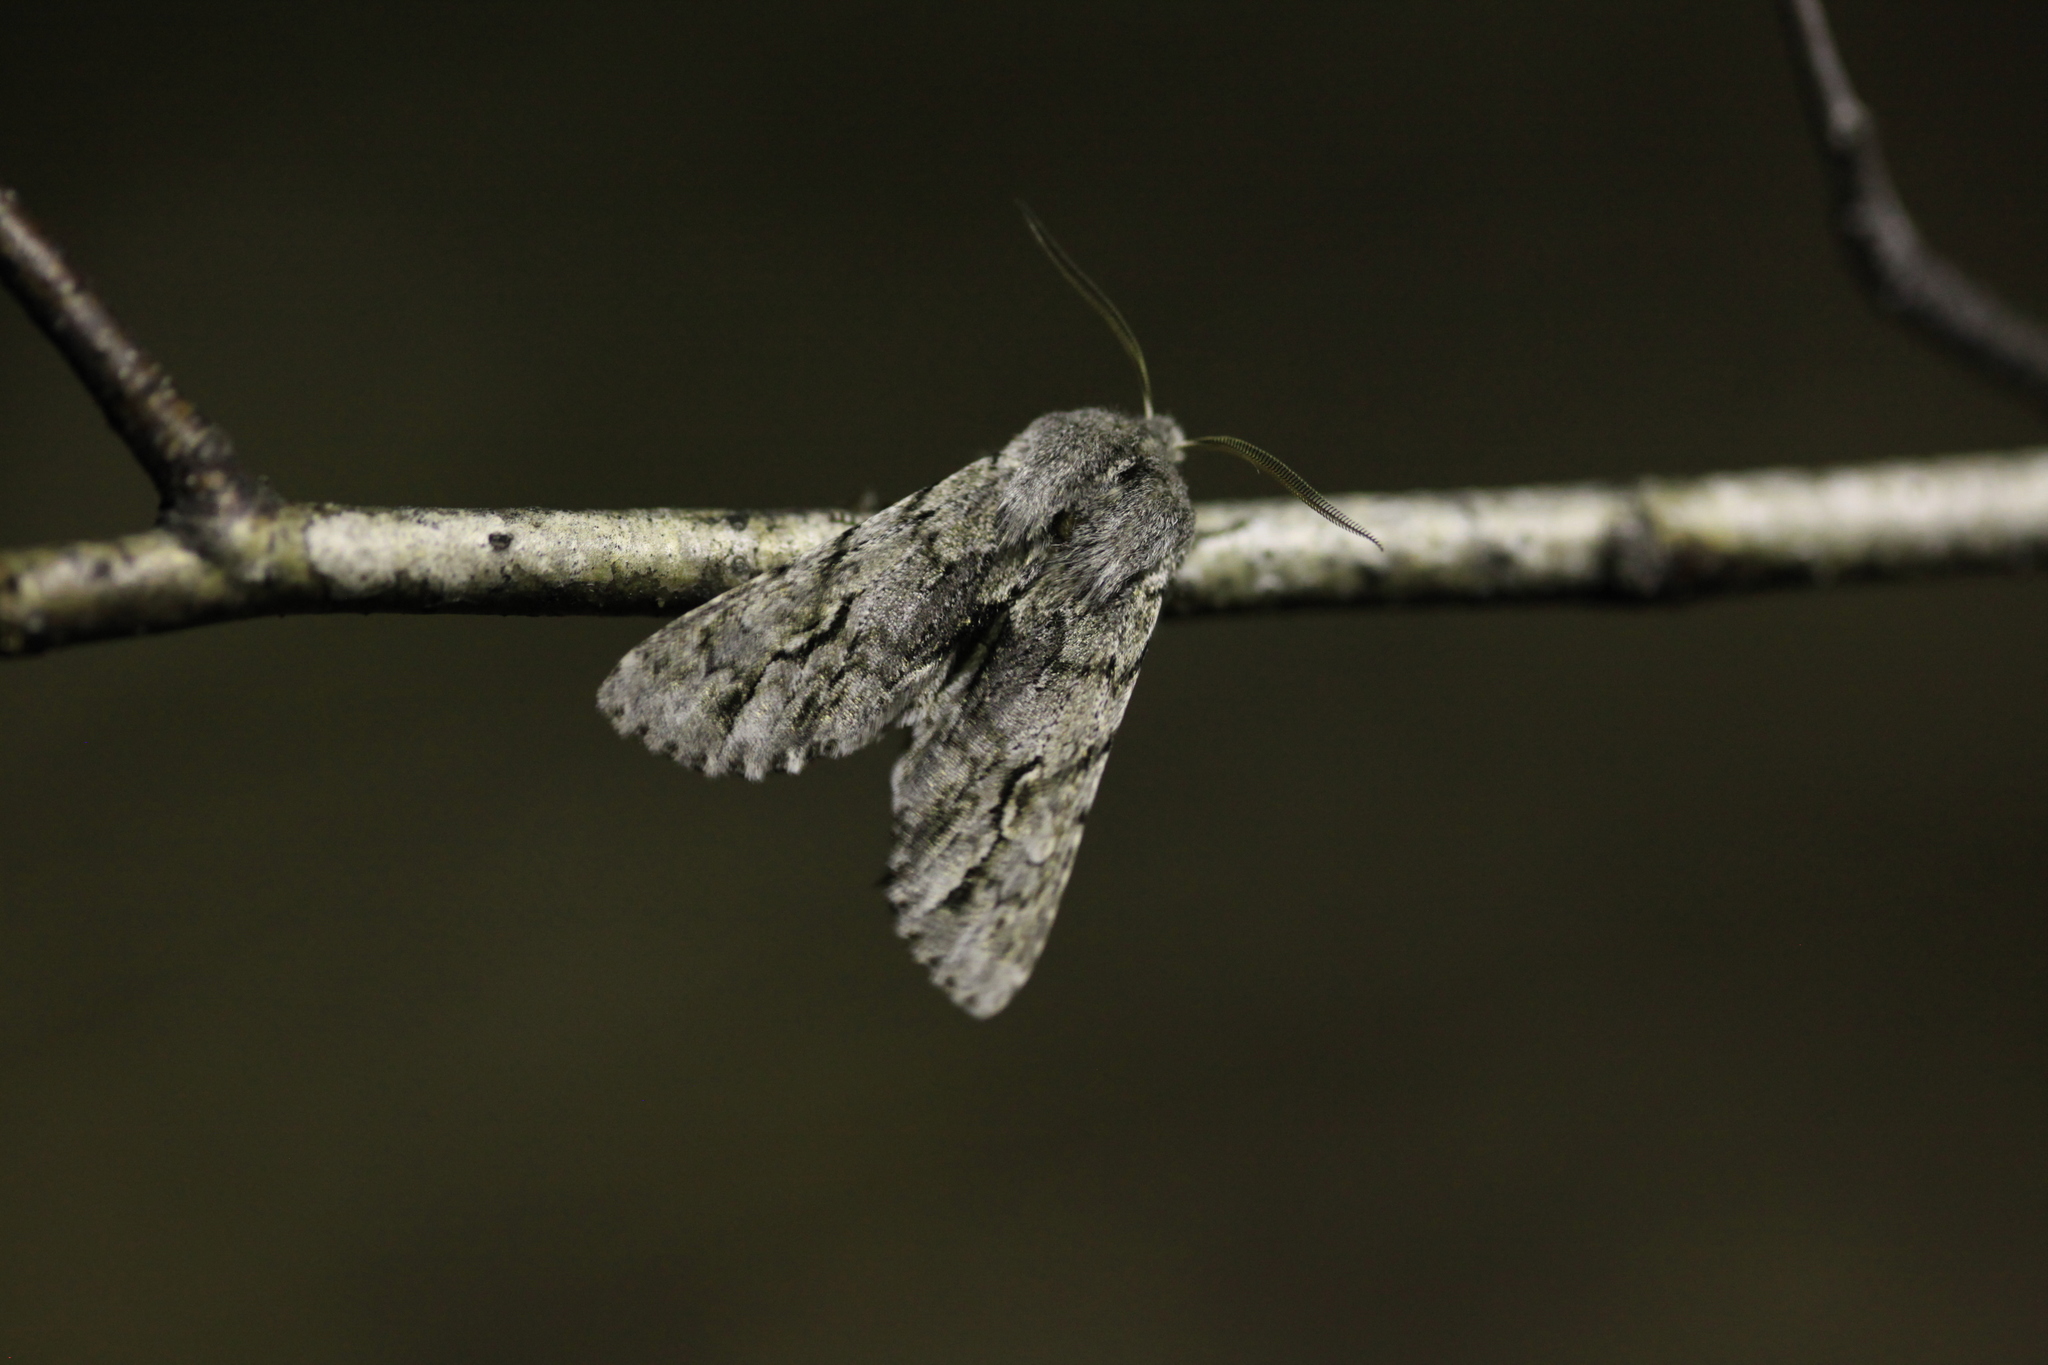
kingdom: Animalia
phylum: Arthropoda
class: Insecta
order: Lepidoptera
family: Noctuidae
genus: Brachionycha
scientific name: Brachionycha nubeculosa
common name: Rannoch sprawler
